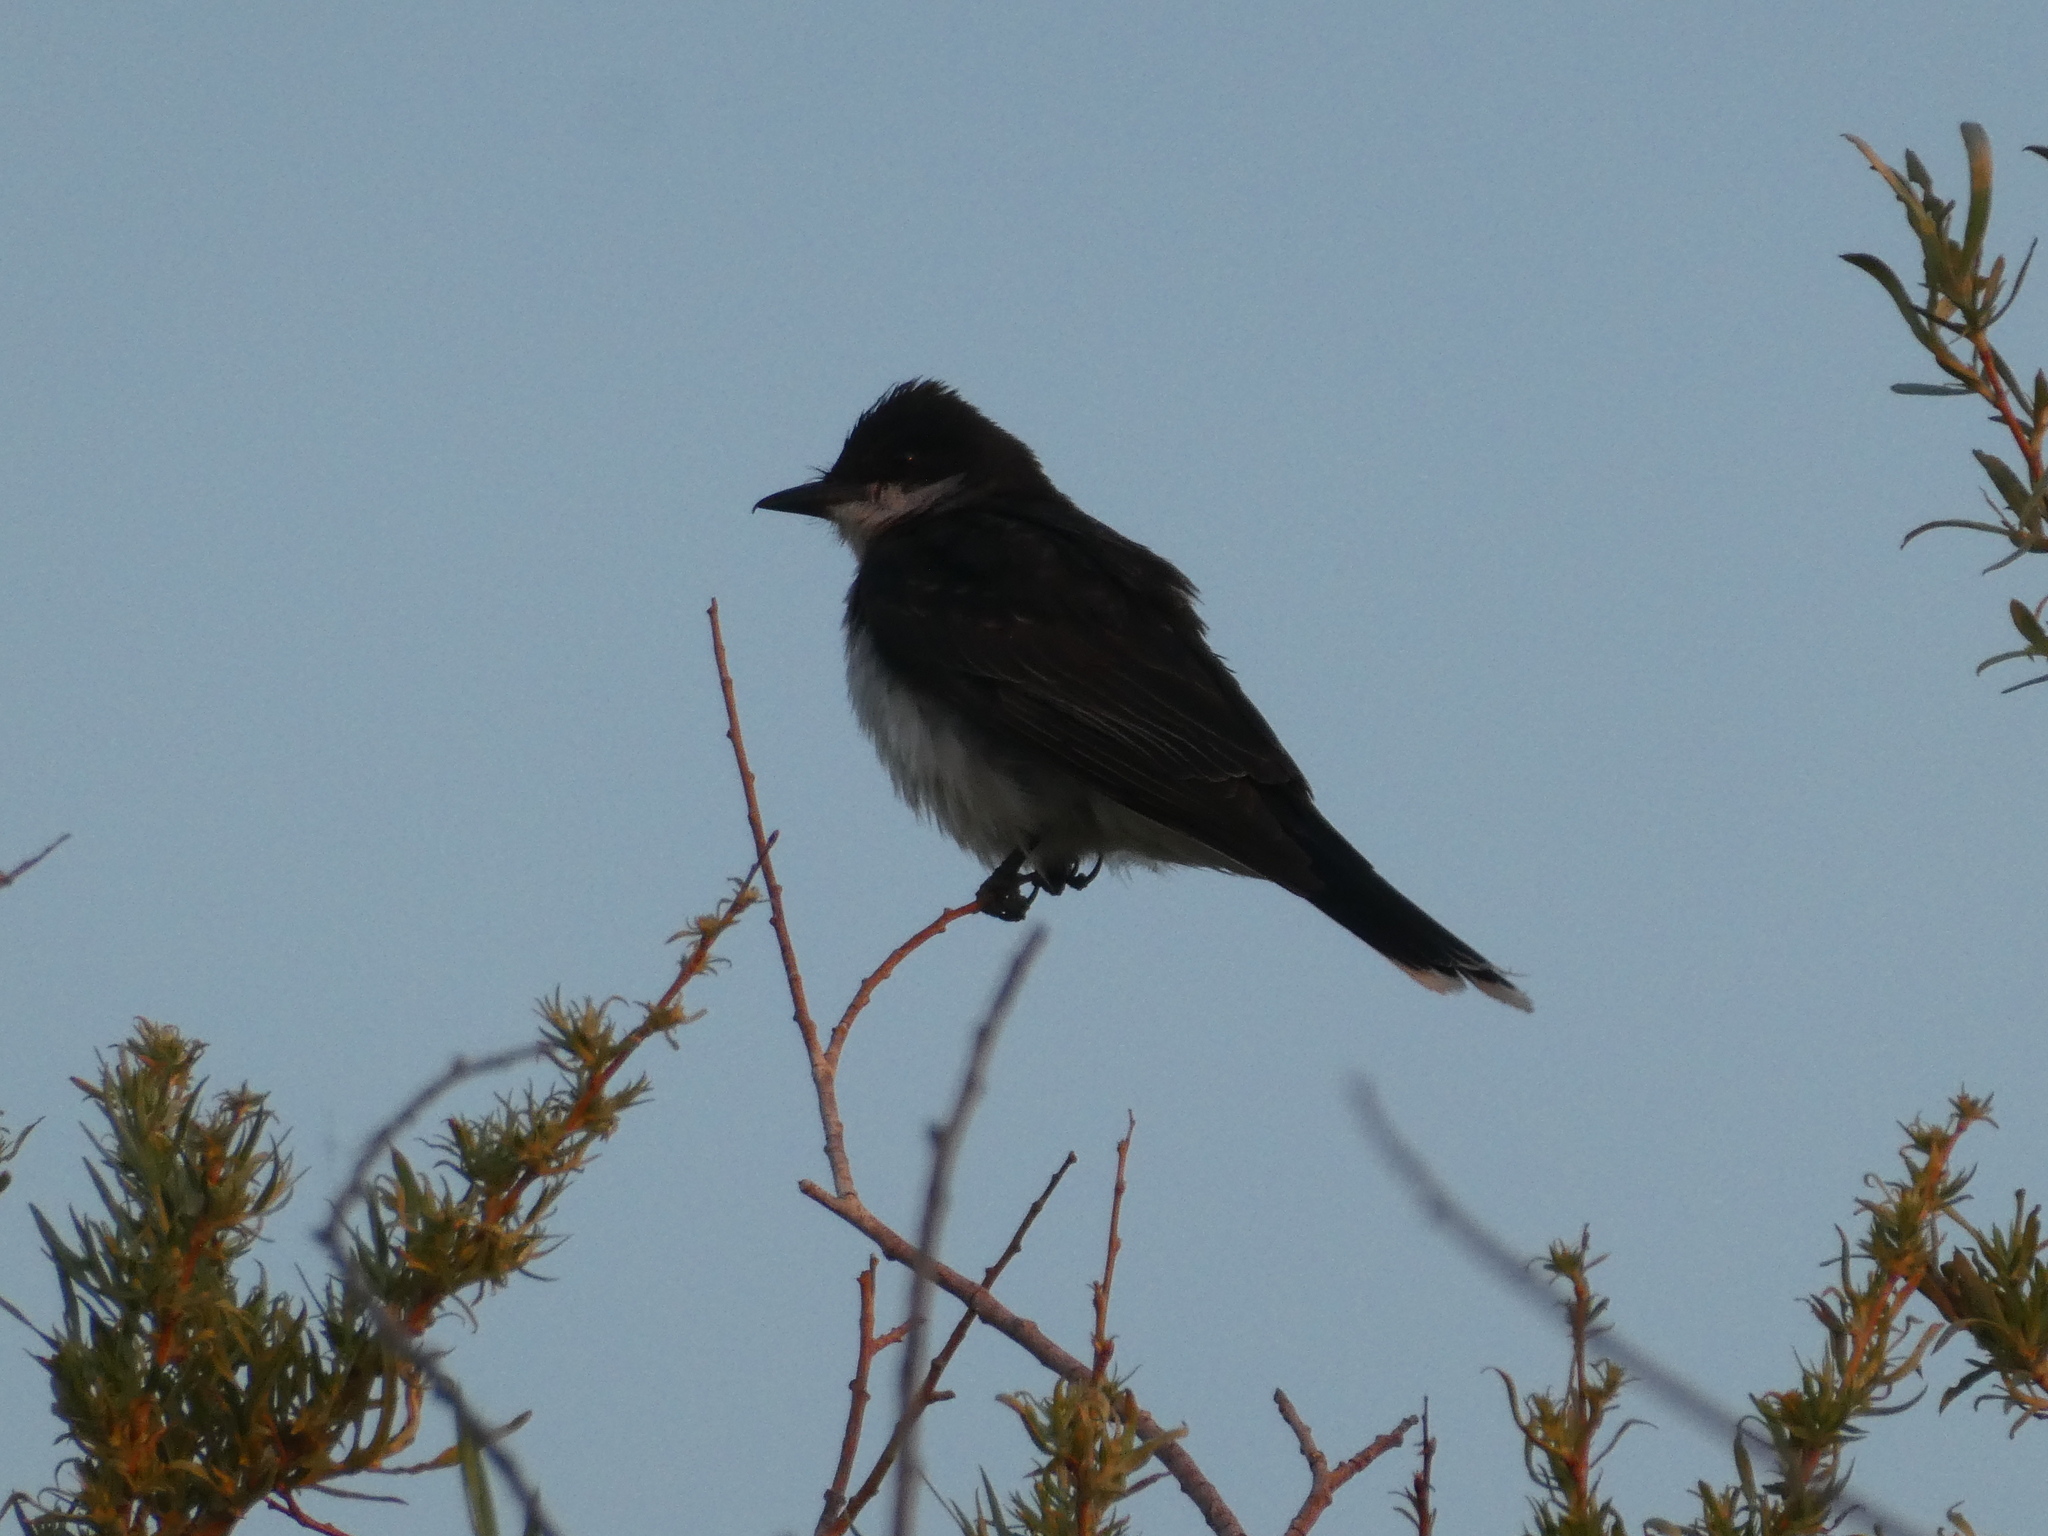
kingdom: Animalia
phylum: Chordata
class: Aves
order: Passeriformes
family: Tyrannidae
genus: Tyrannus
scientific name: Tyrannus tyrannus
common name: Eastern kingbird
